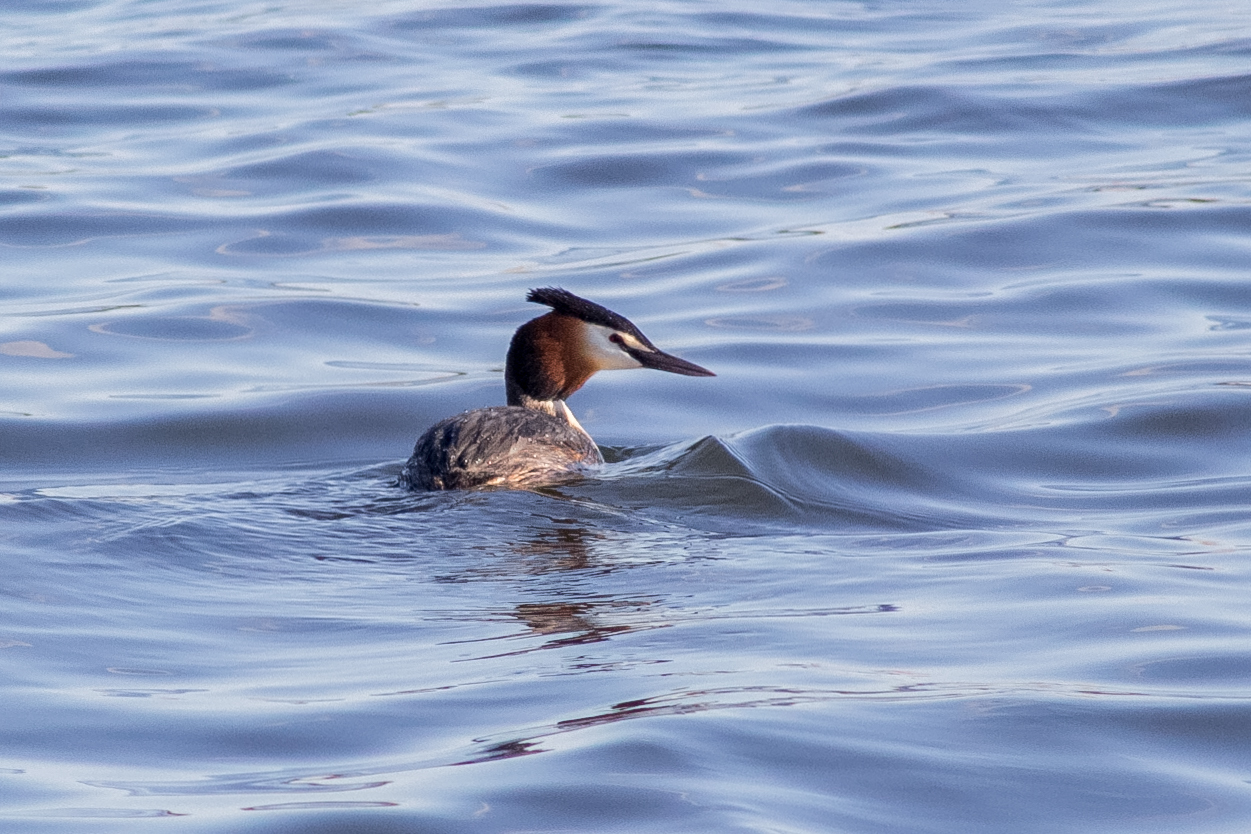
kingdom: Animalia
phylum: Chordata
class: Aves
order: Podicipediformes
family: Podicipedidae
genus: Podiceps
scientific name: Podiceps cristatus
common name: Great crested grebe
